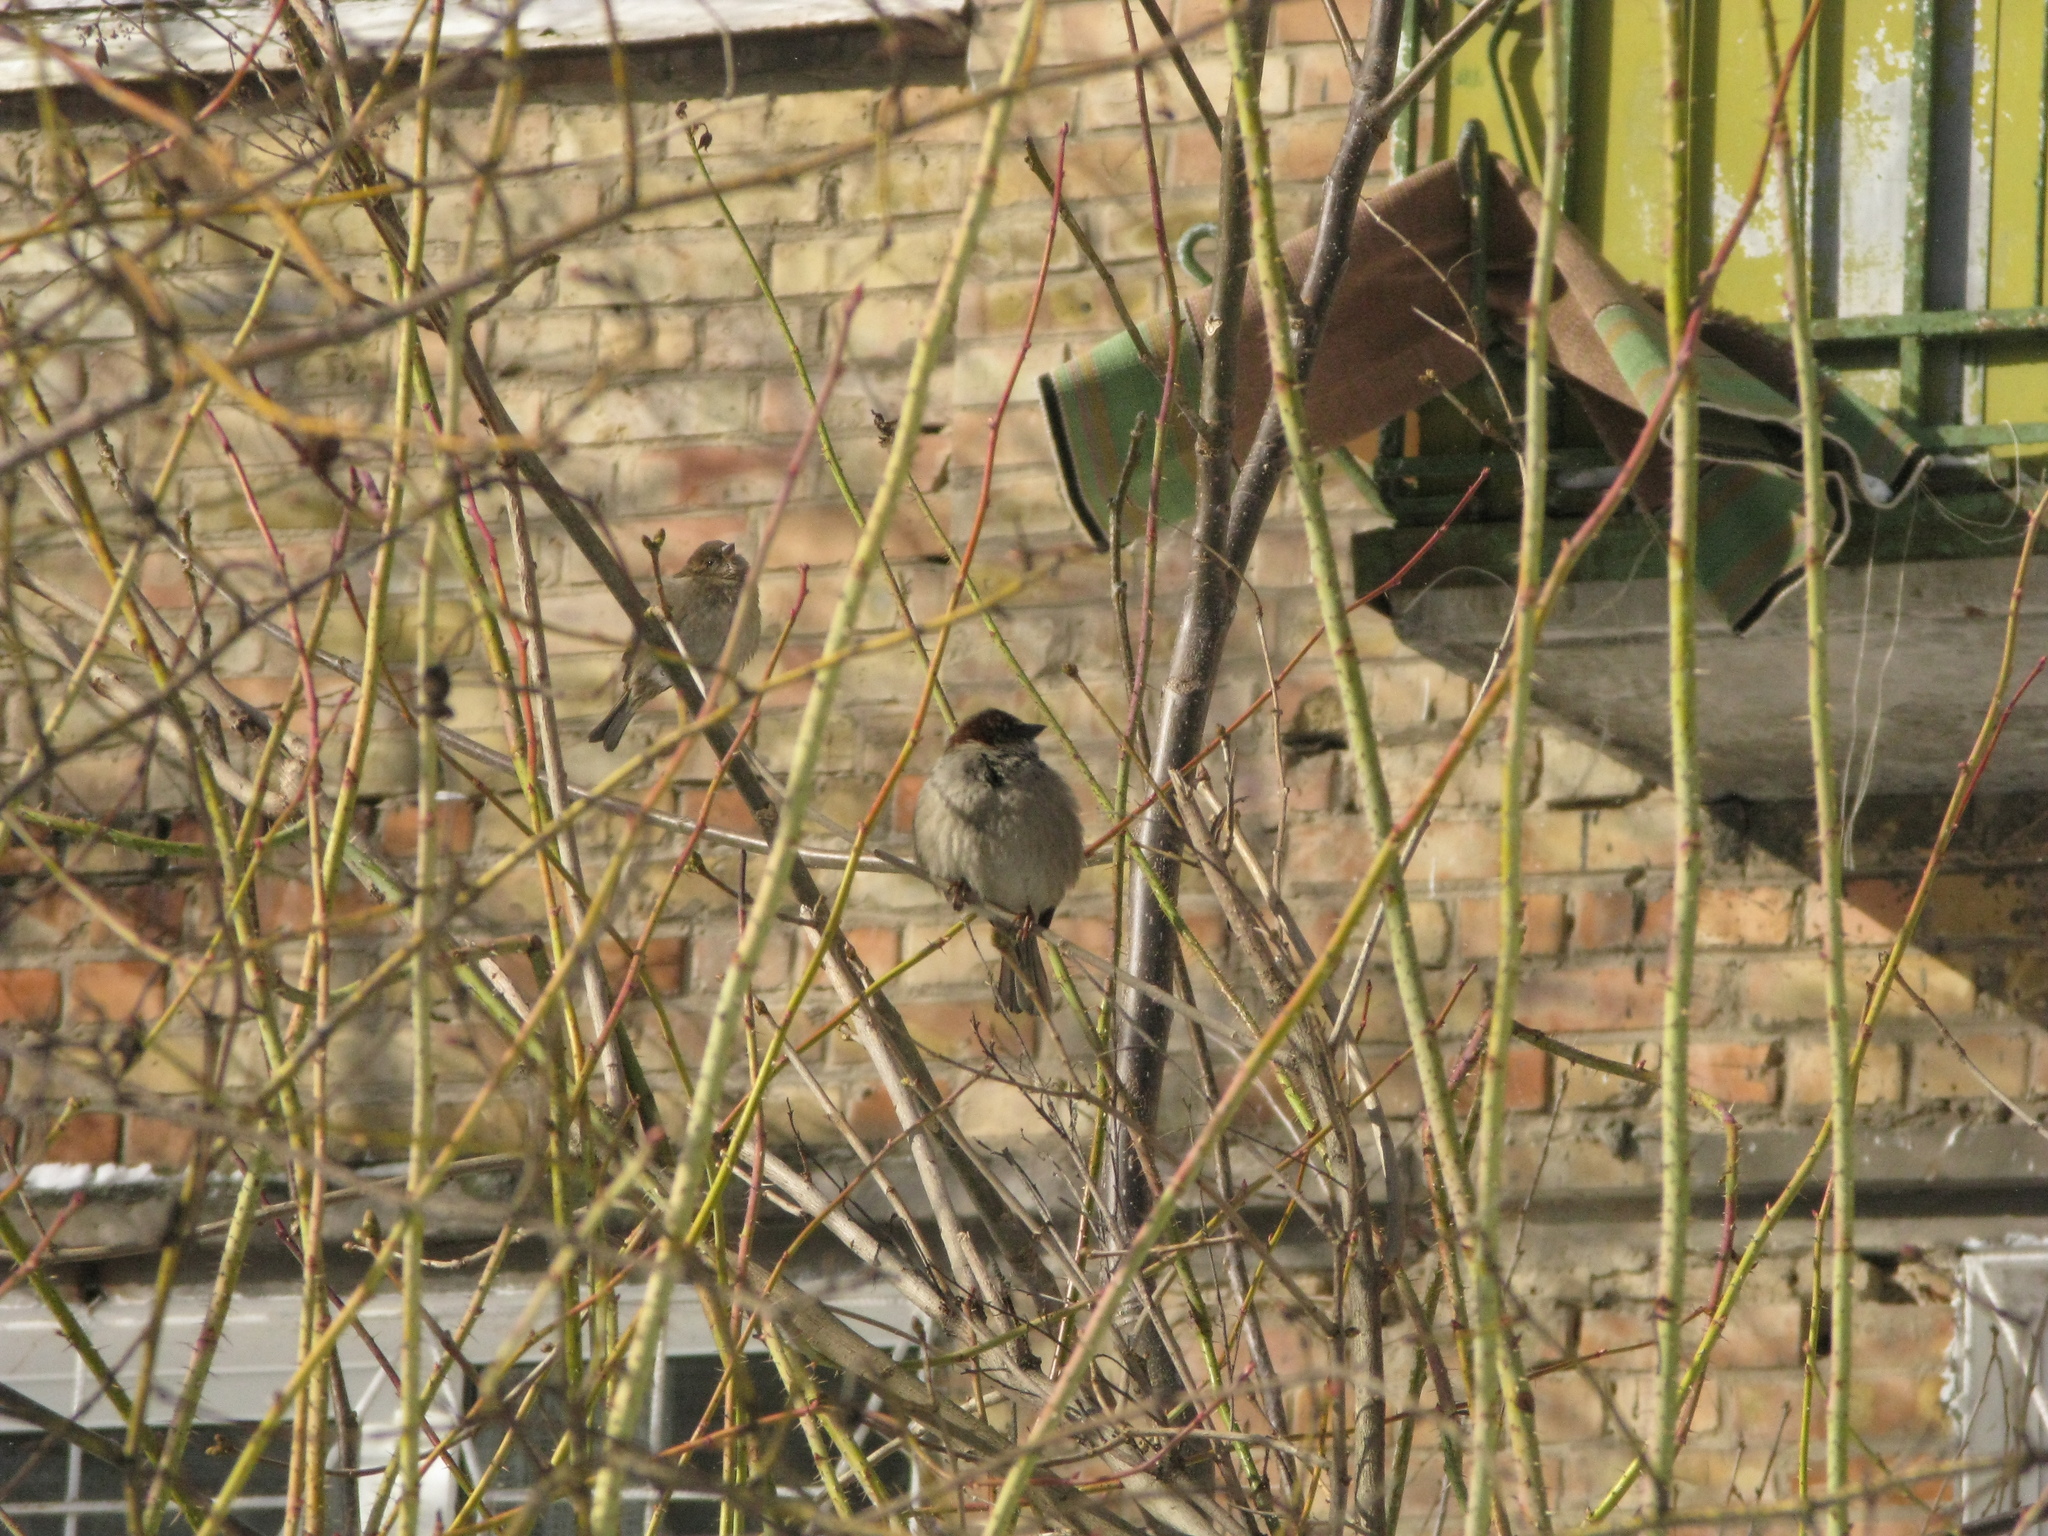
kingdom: Animalia
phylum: Chordata
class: Aves
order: Passeriformes
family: Passeridae
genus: Passer
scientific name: Passer domesticus
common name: House sparrow
